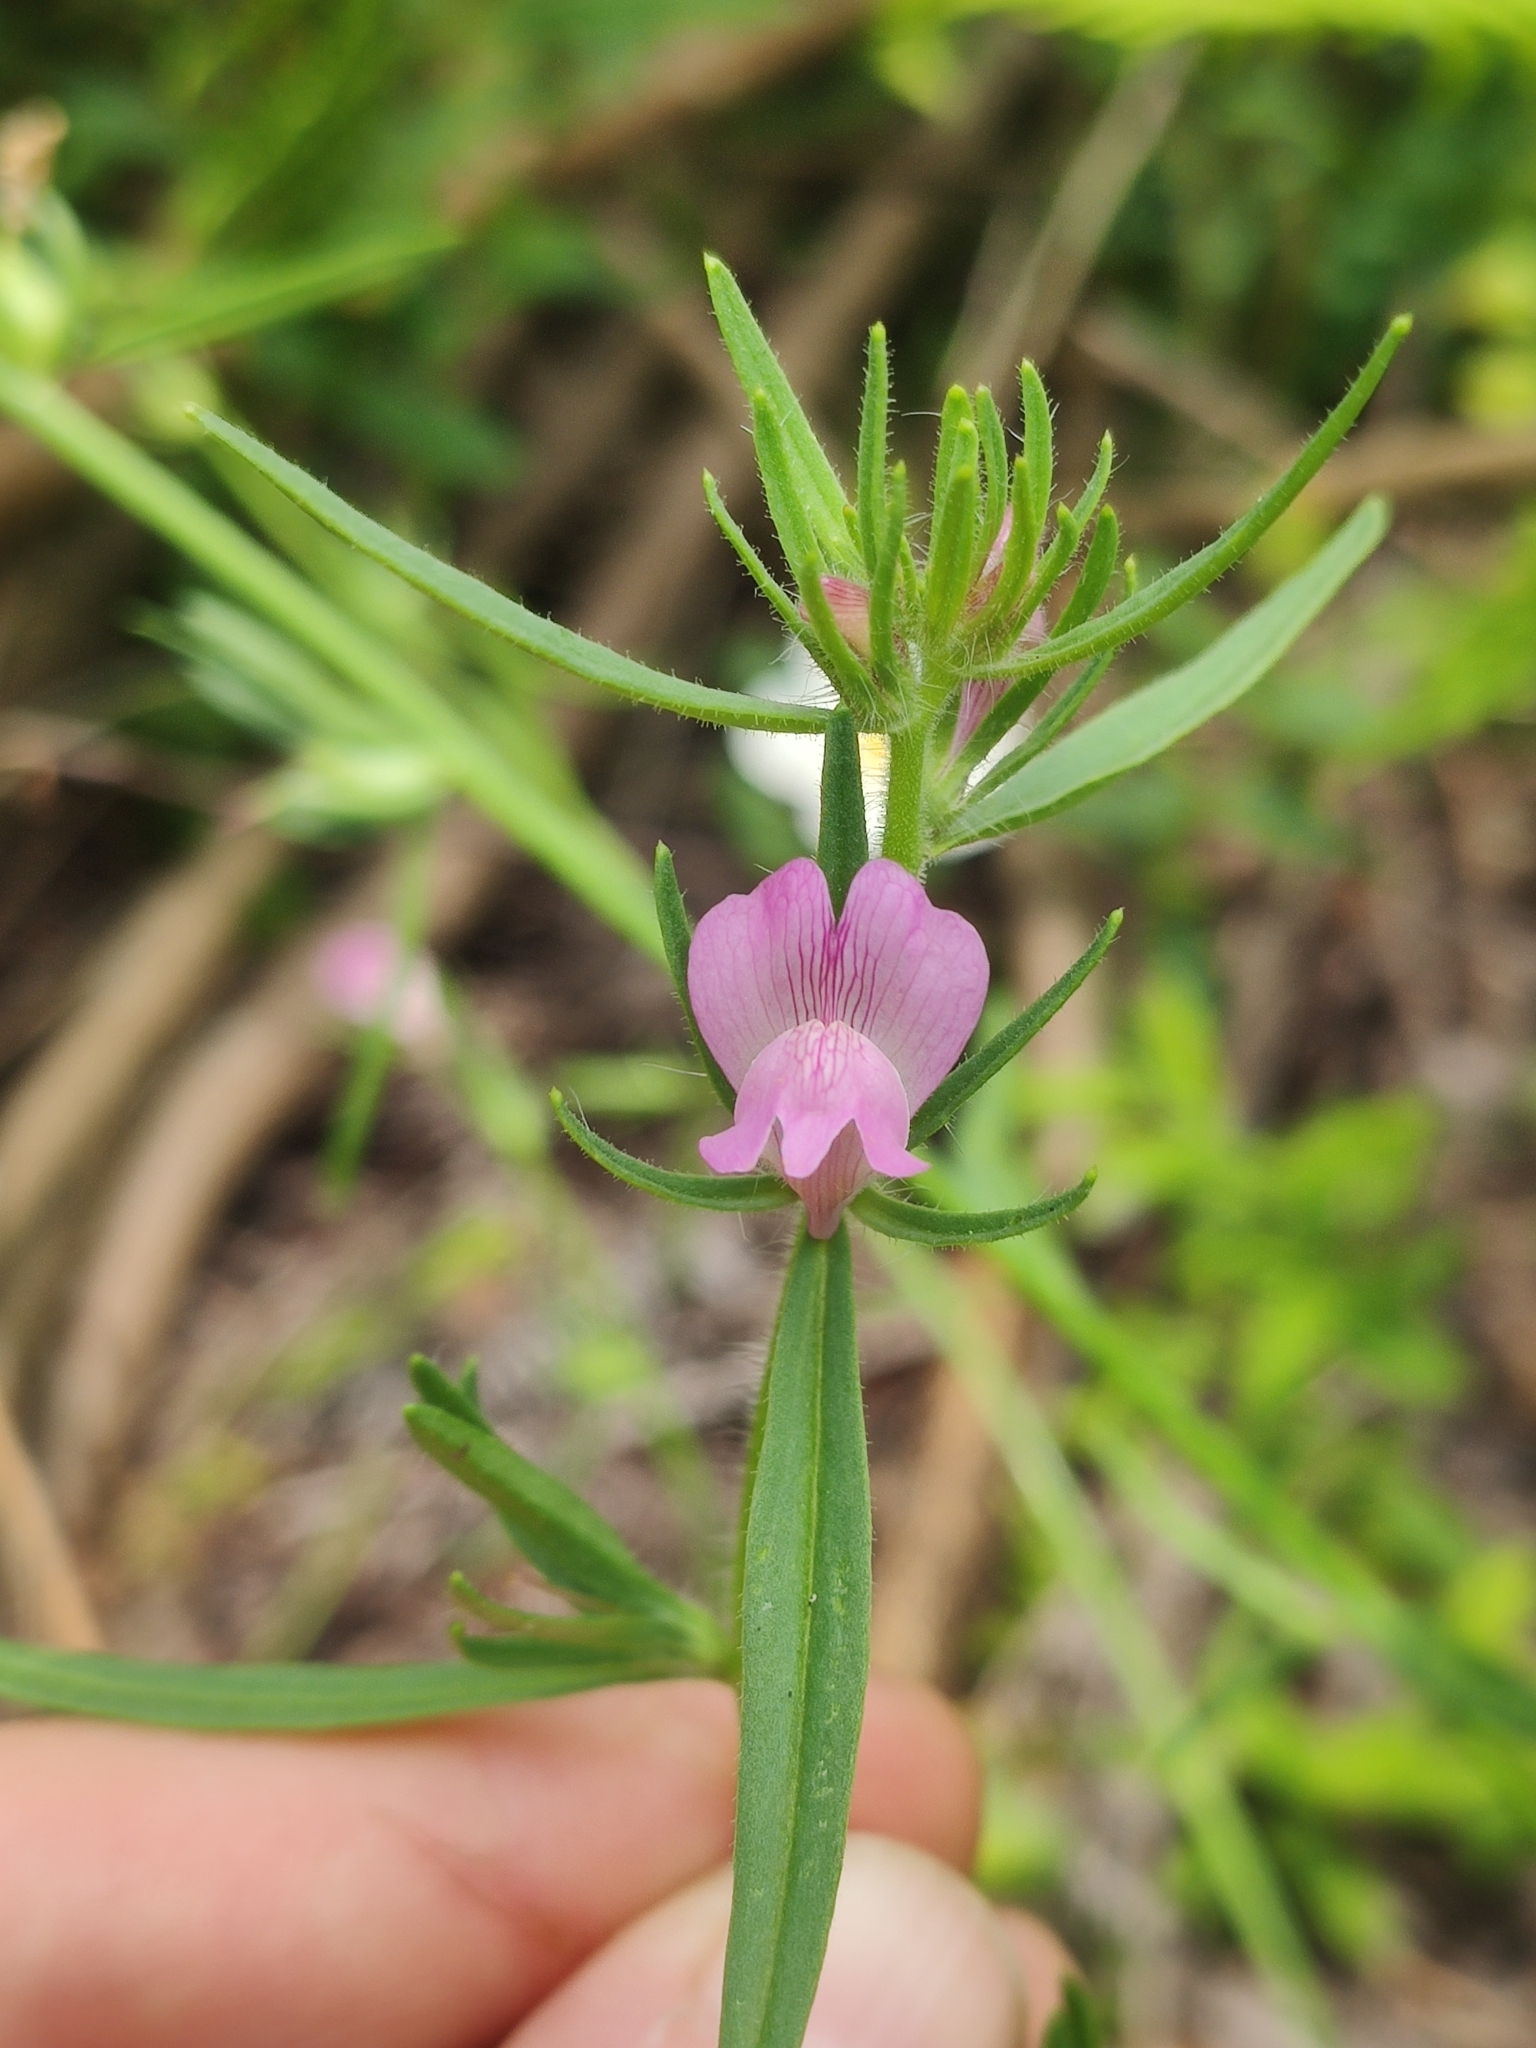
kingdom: Plantae
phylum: Tracheophyta
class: Magnoliopsida
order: Lamiales
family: Plantaginaceae
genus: Misopates
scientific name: Misopates orontium
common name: Weasel's-snout
